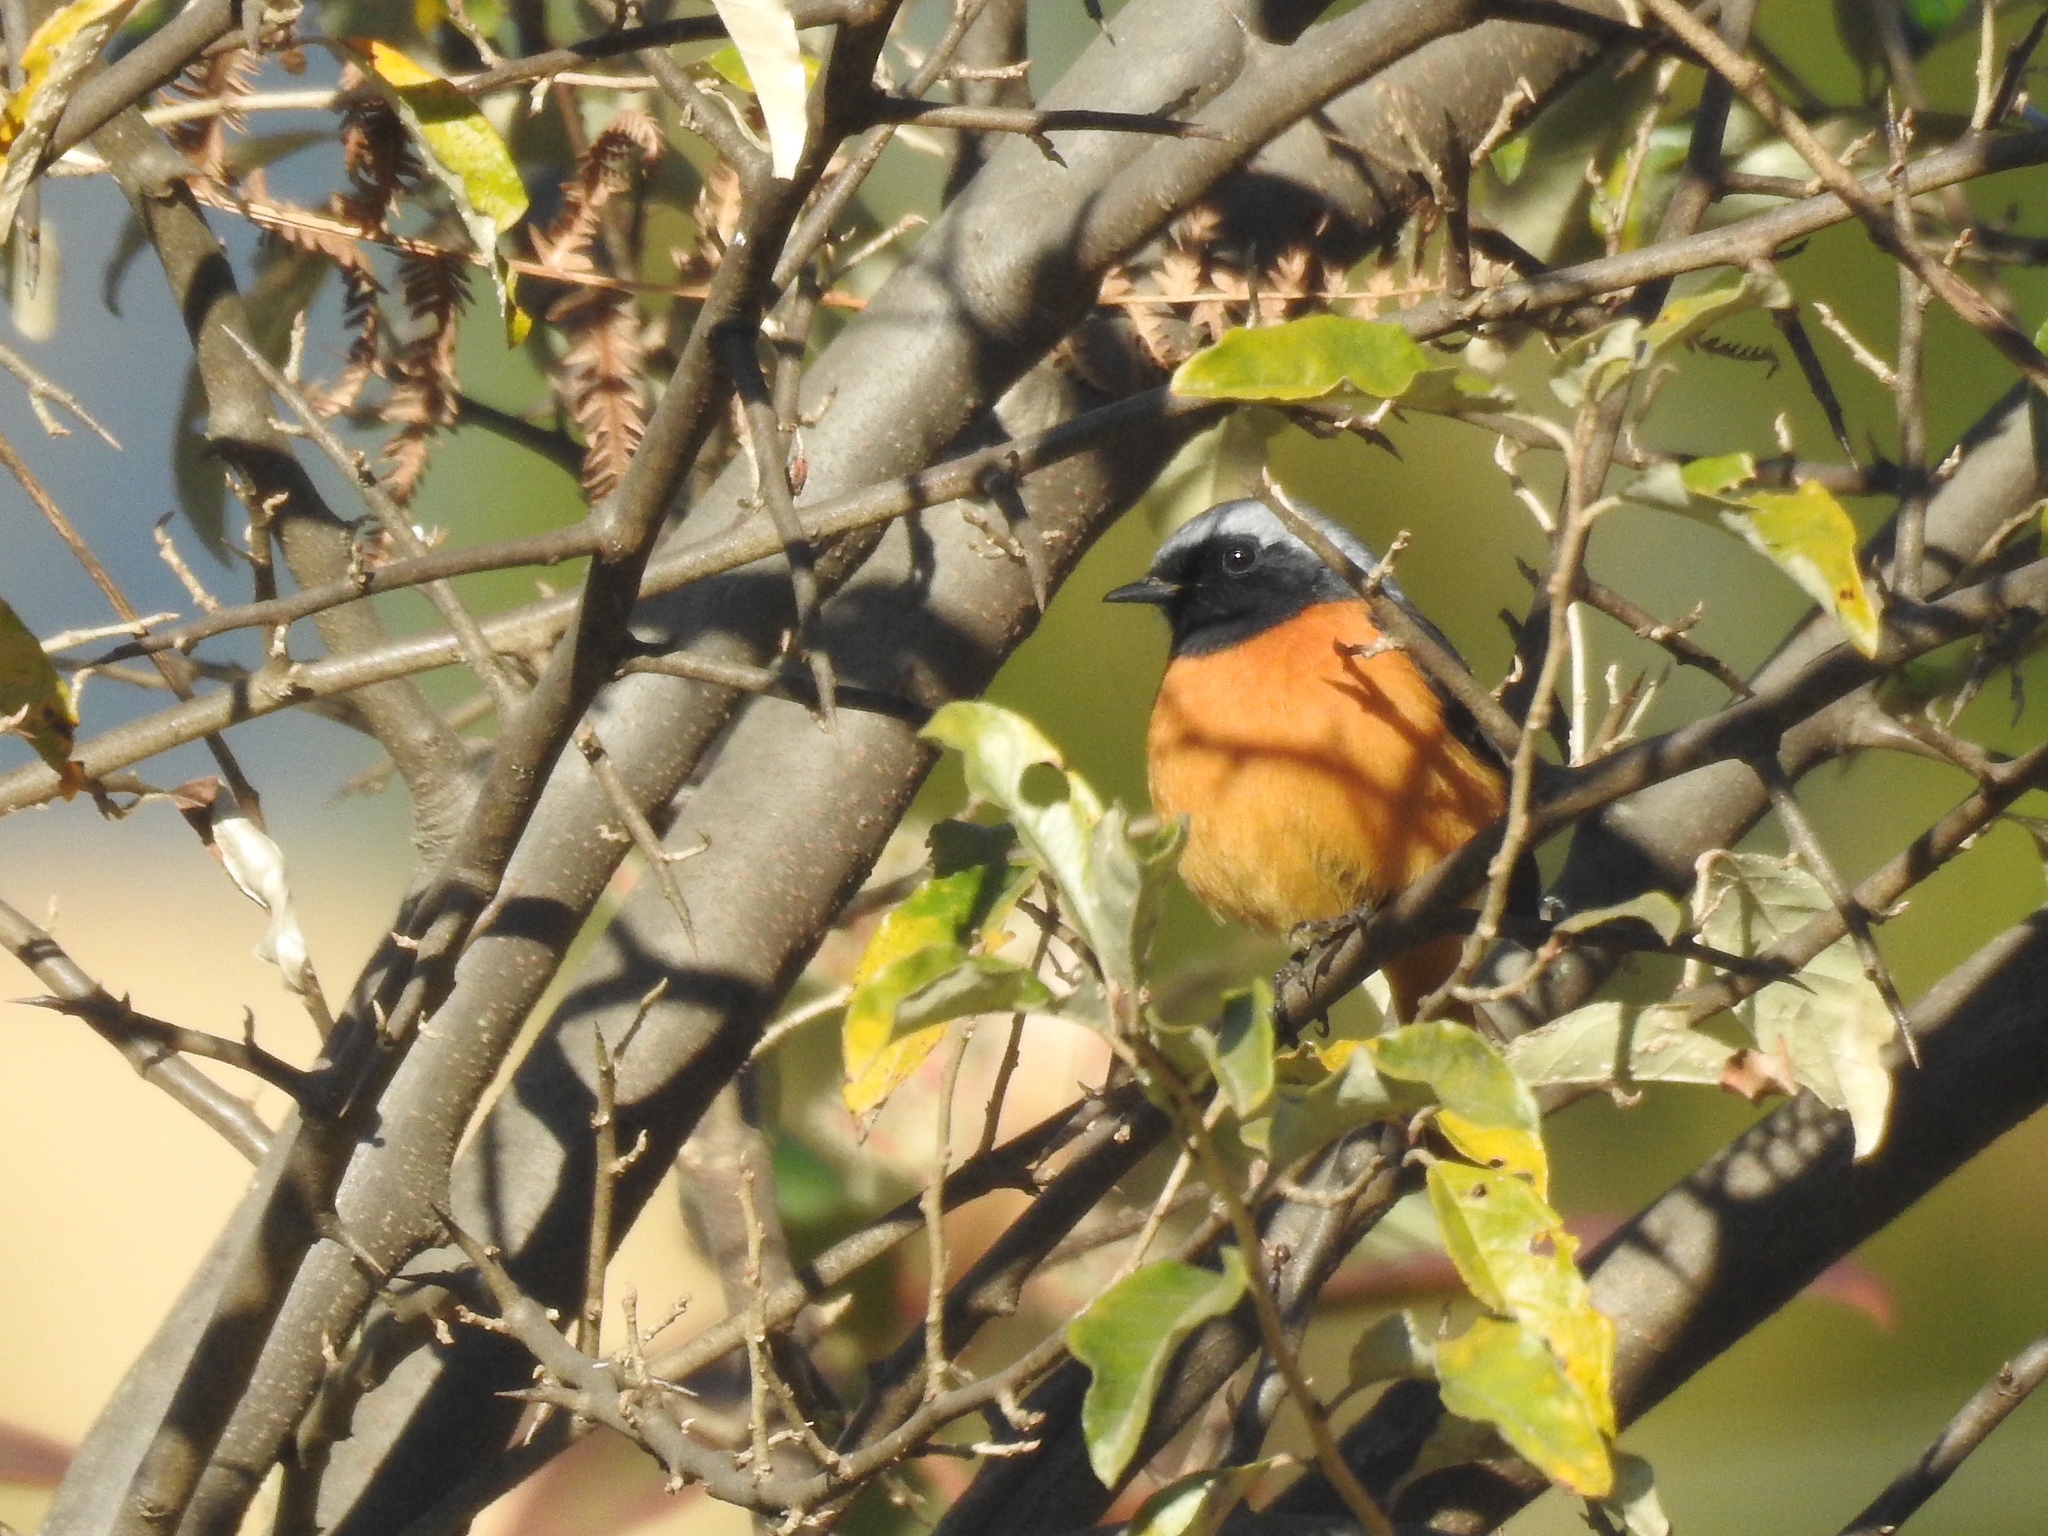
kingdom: Animalia
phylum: Chordata
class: Aves
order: Passeriformes
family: Muscicapidae
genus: Phoenicurus
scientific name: Phoenicurus auroreus
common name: Daurian redstart
